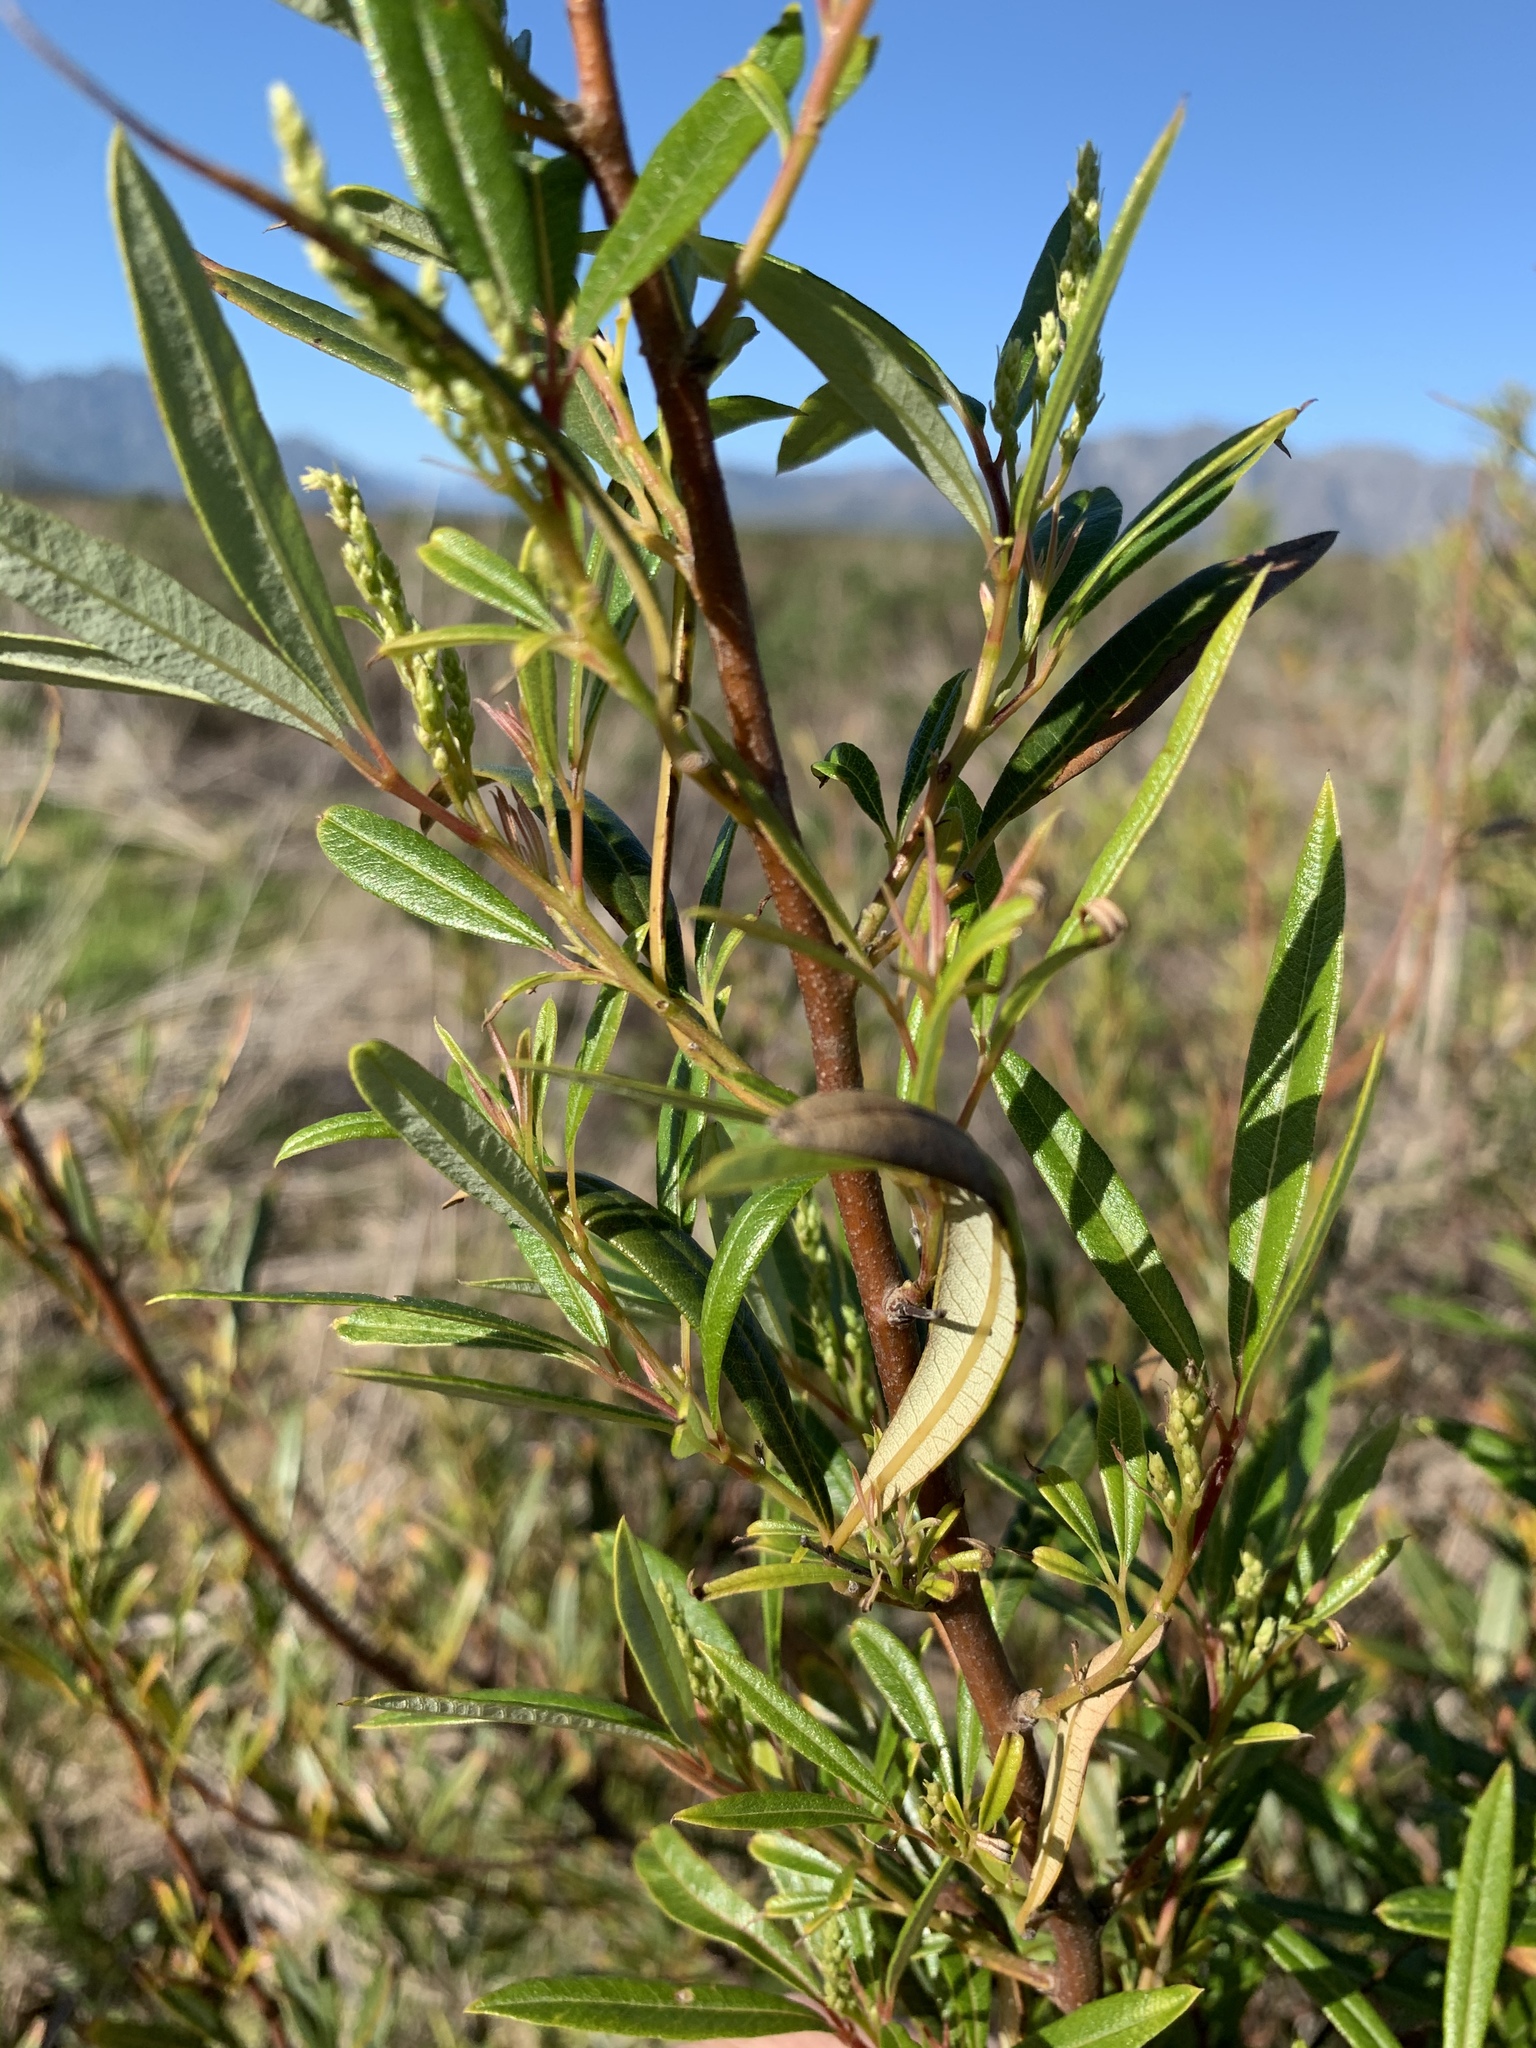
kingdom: Plantae
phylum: Tracheophyta
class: Magnoliopsida
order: Sapindales
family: Anacardiaceae
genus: Searsia
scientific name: Searsia angustifolia
